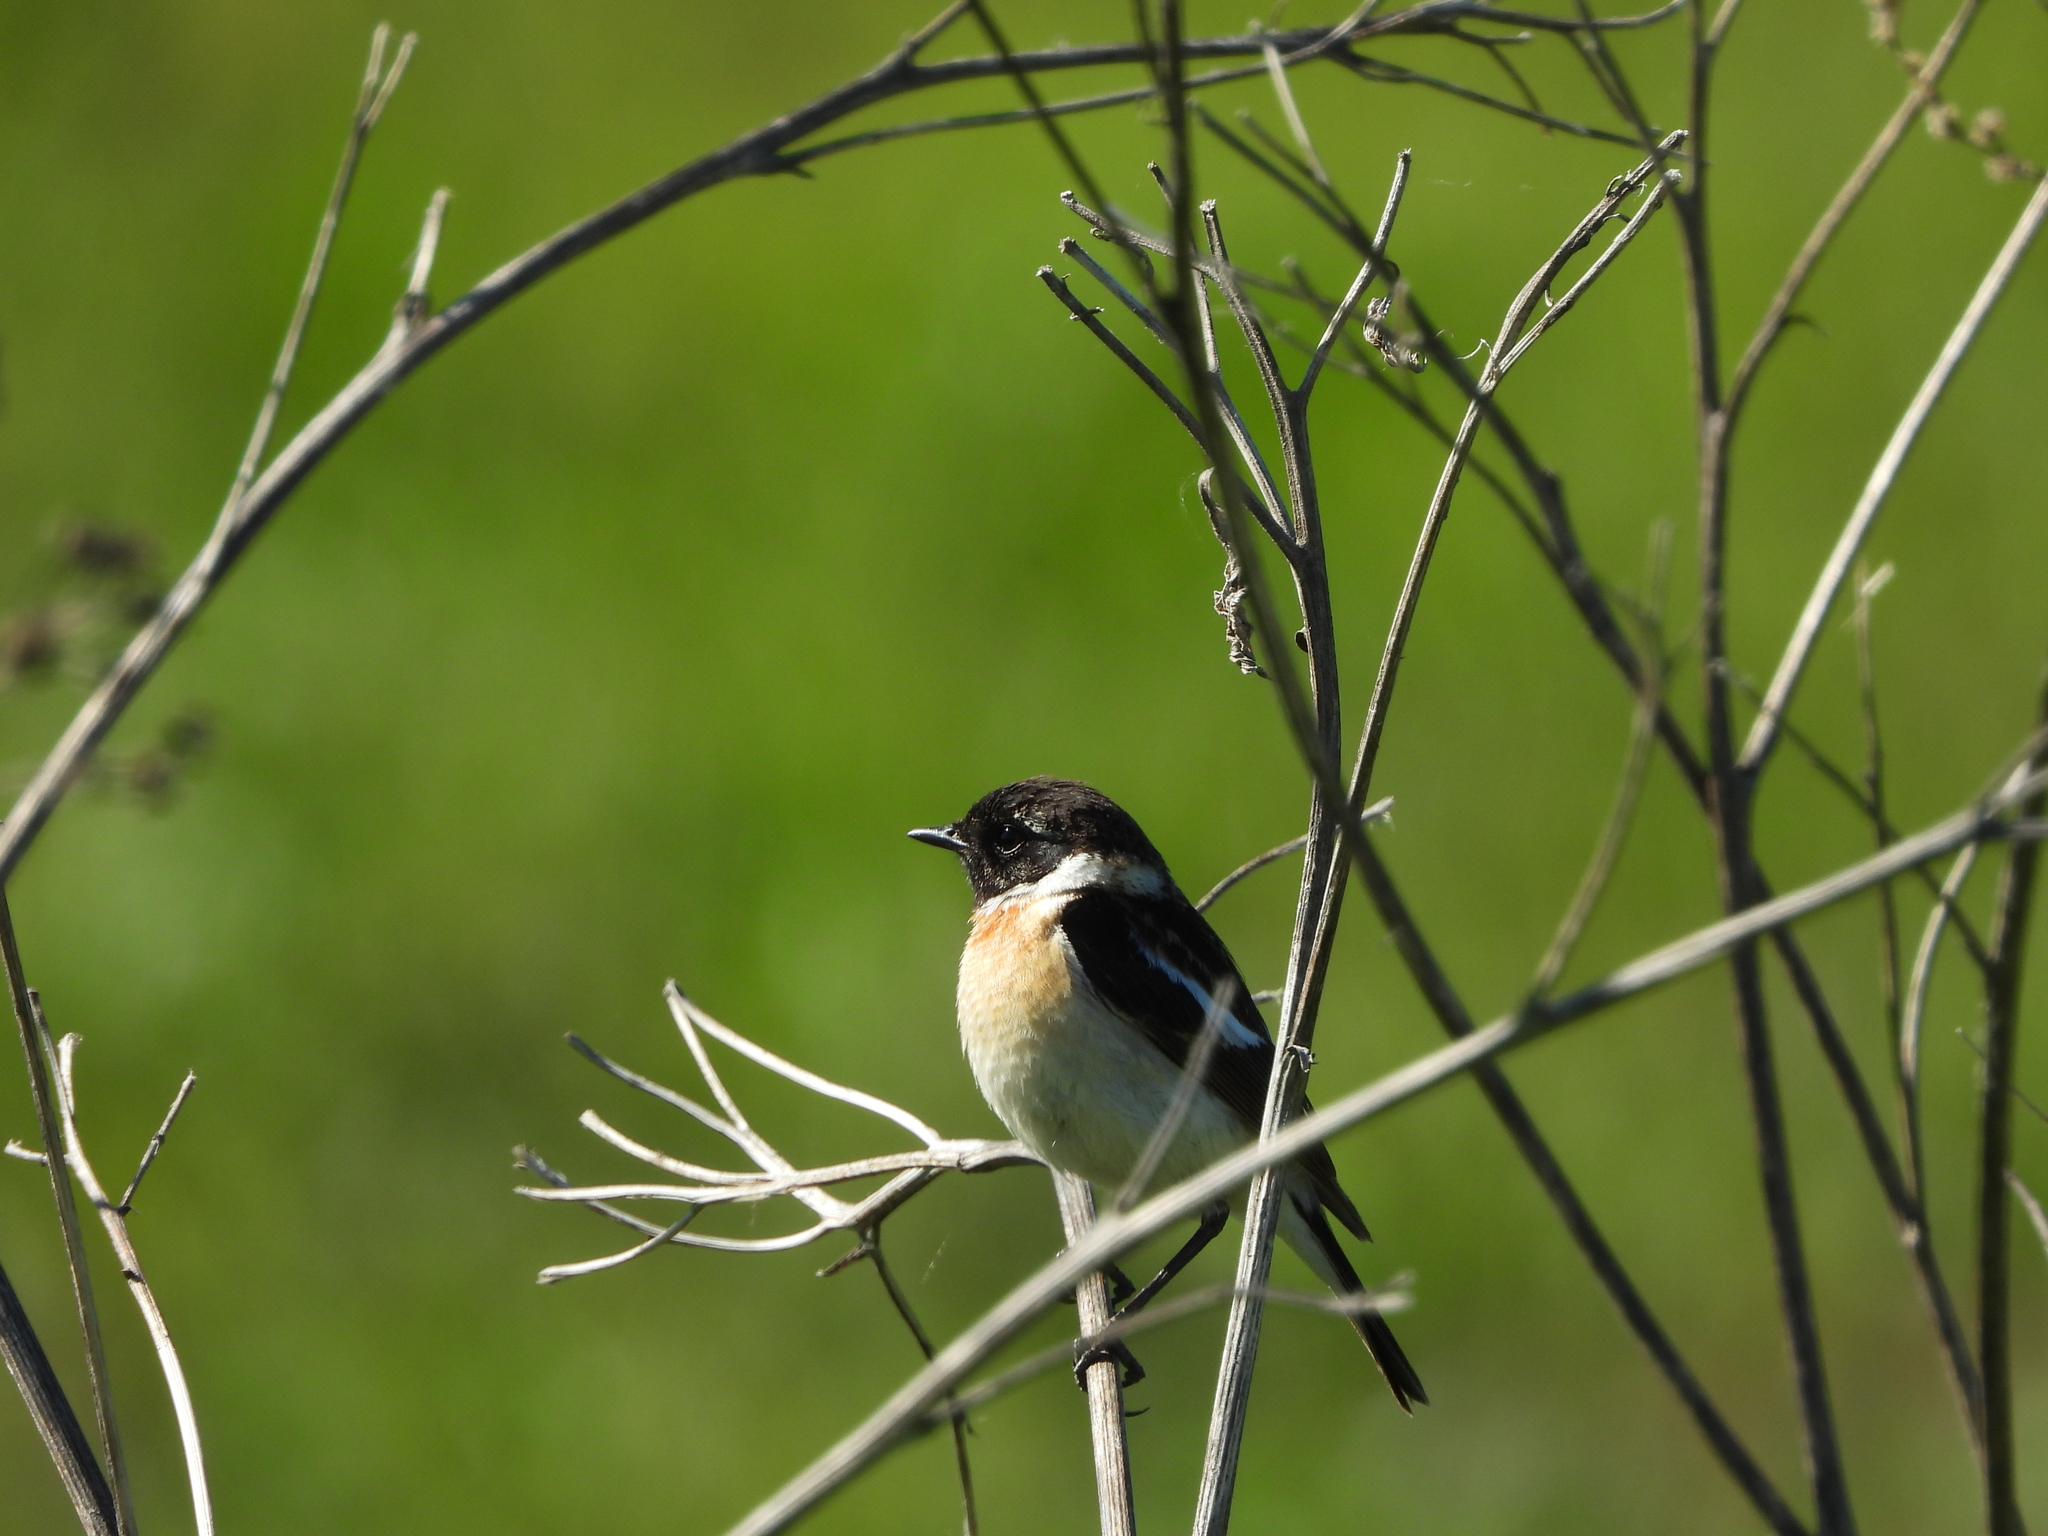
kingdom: Animalia
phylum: Chordata
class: Aves
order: Passeriformes
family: Muscicapidae
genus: Saxicola
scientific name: Saxicola maurus
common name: Siberian stonechat
